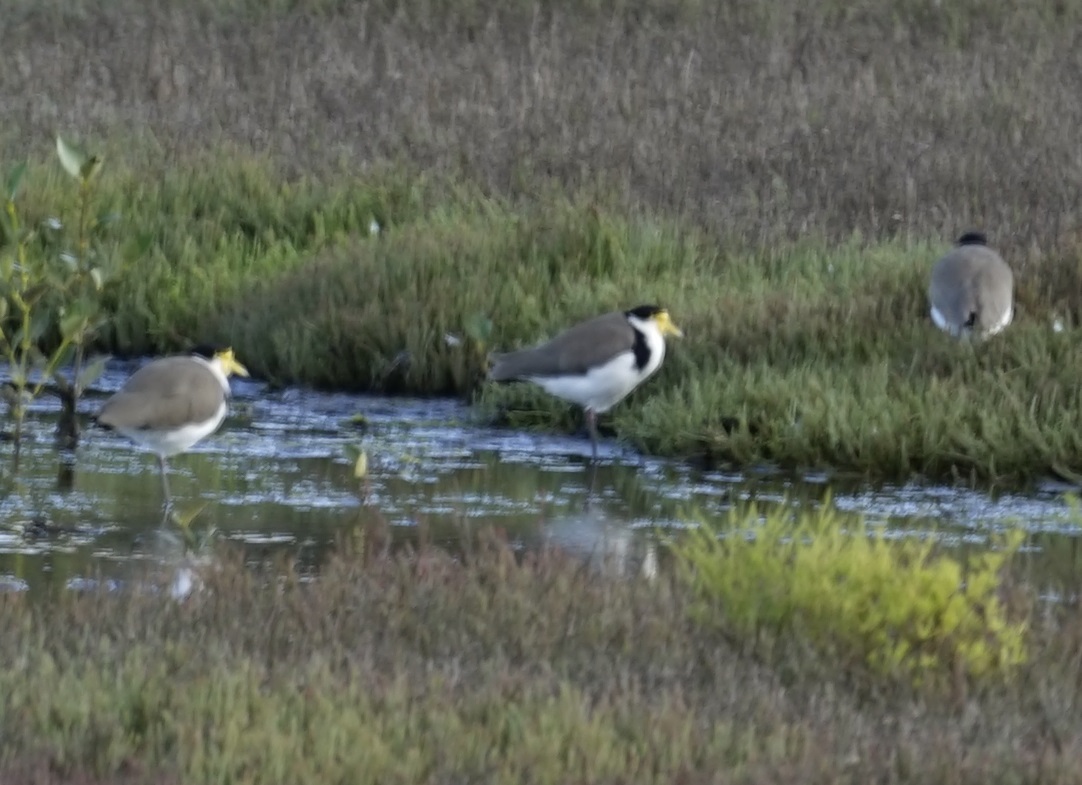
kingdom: Animalia
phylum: Chordata
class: Aves
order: Charadriiformes
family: Charadriidae
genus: Vanellus
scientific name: Vanellus miles
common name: Masked lapwing
